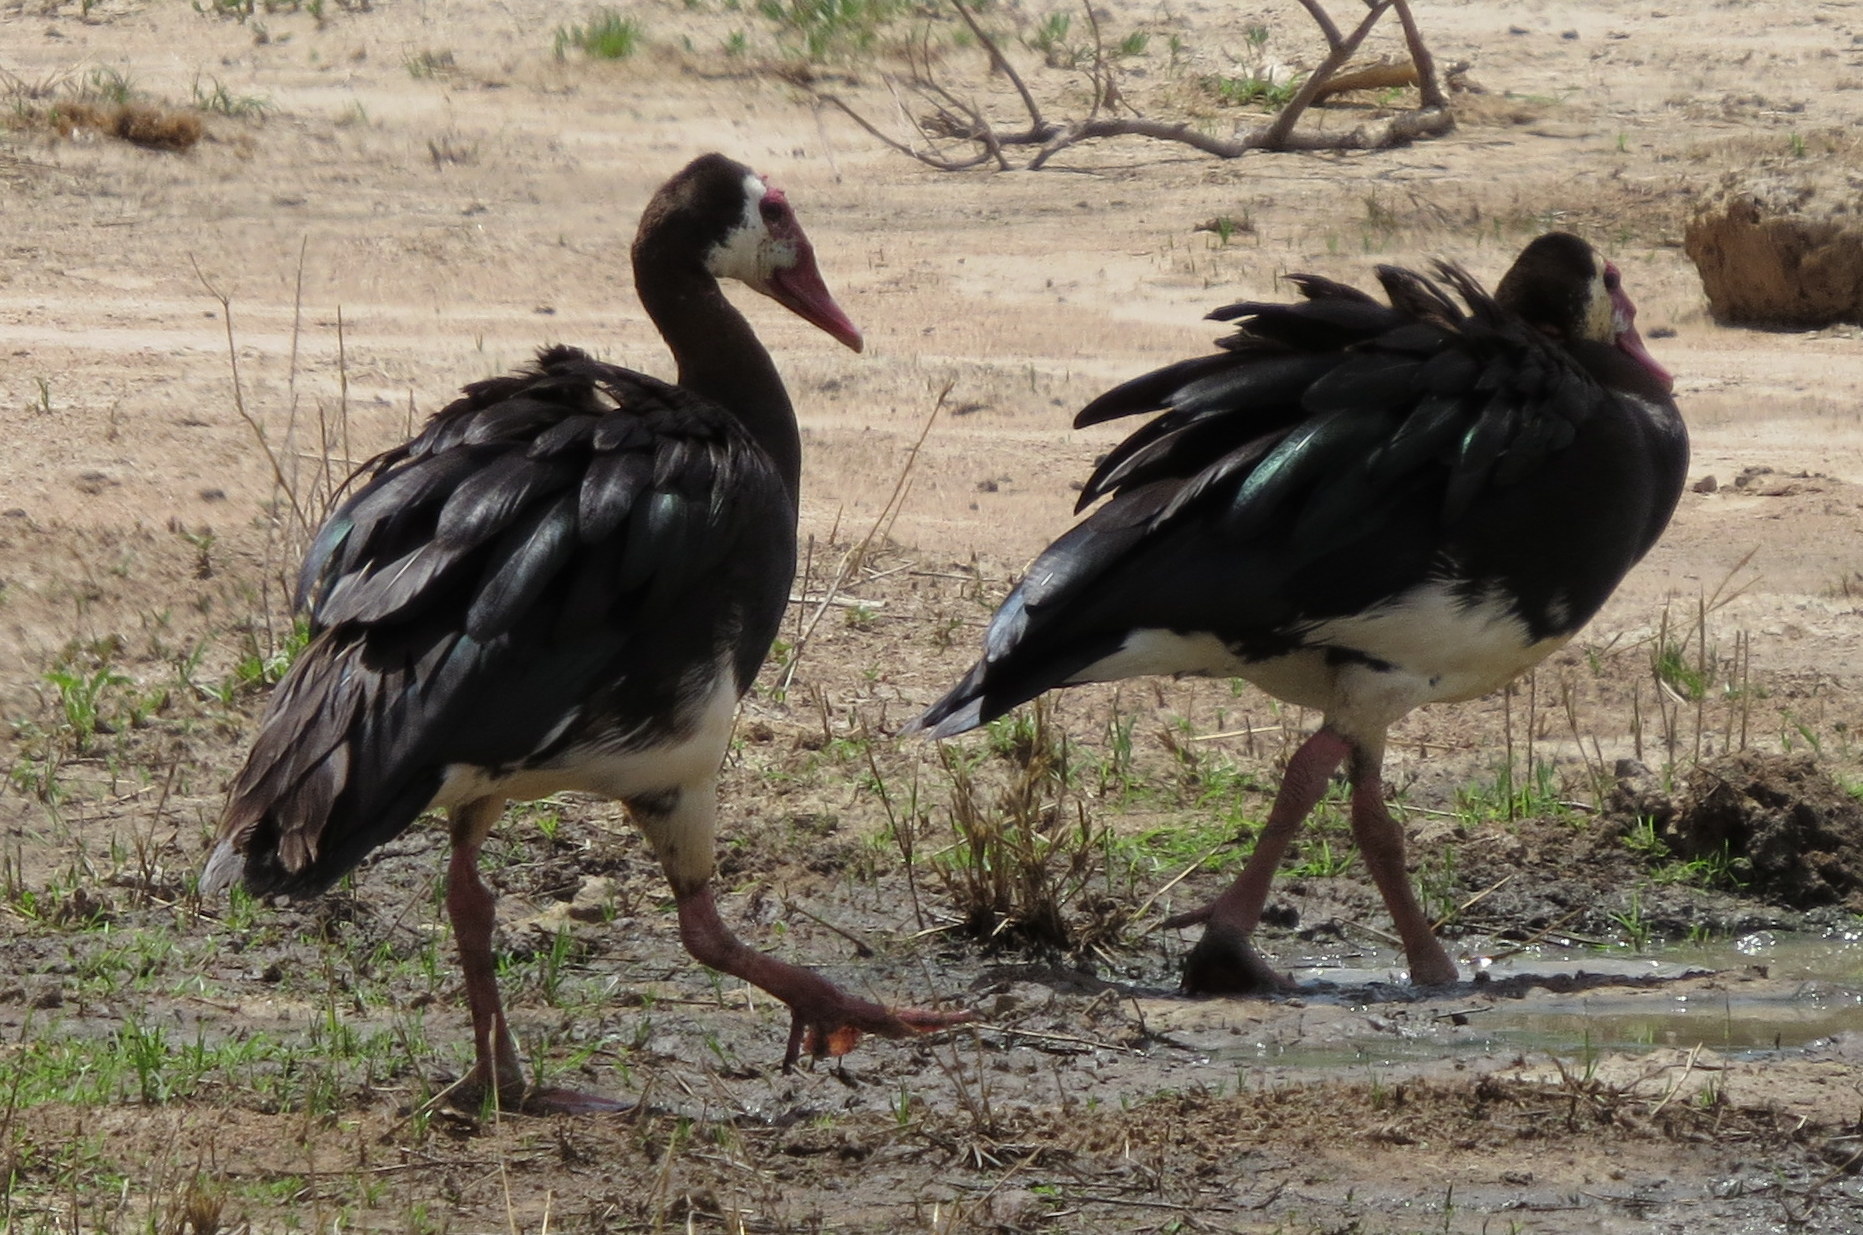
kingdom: Animalia
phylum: Chordata
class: Aves
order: Anseriformes
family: Anatidae
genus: Plectropterus
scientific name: Plectropterus gambensis
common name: Spur-winged goose
